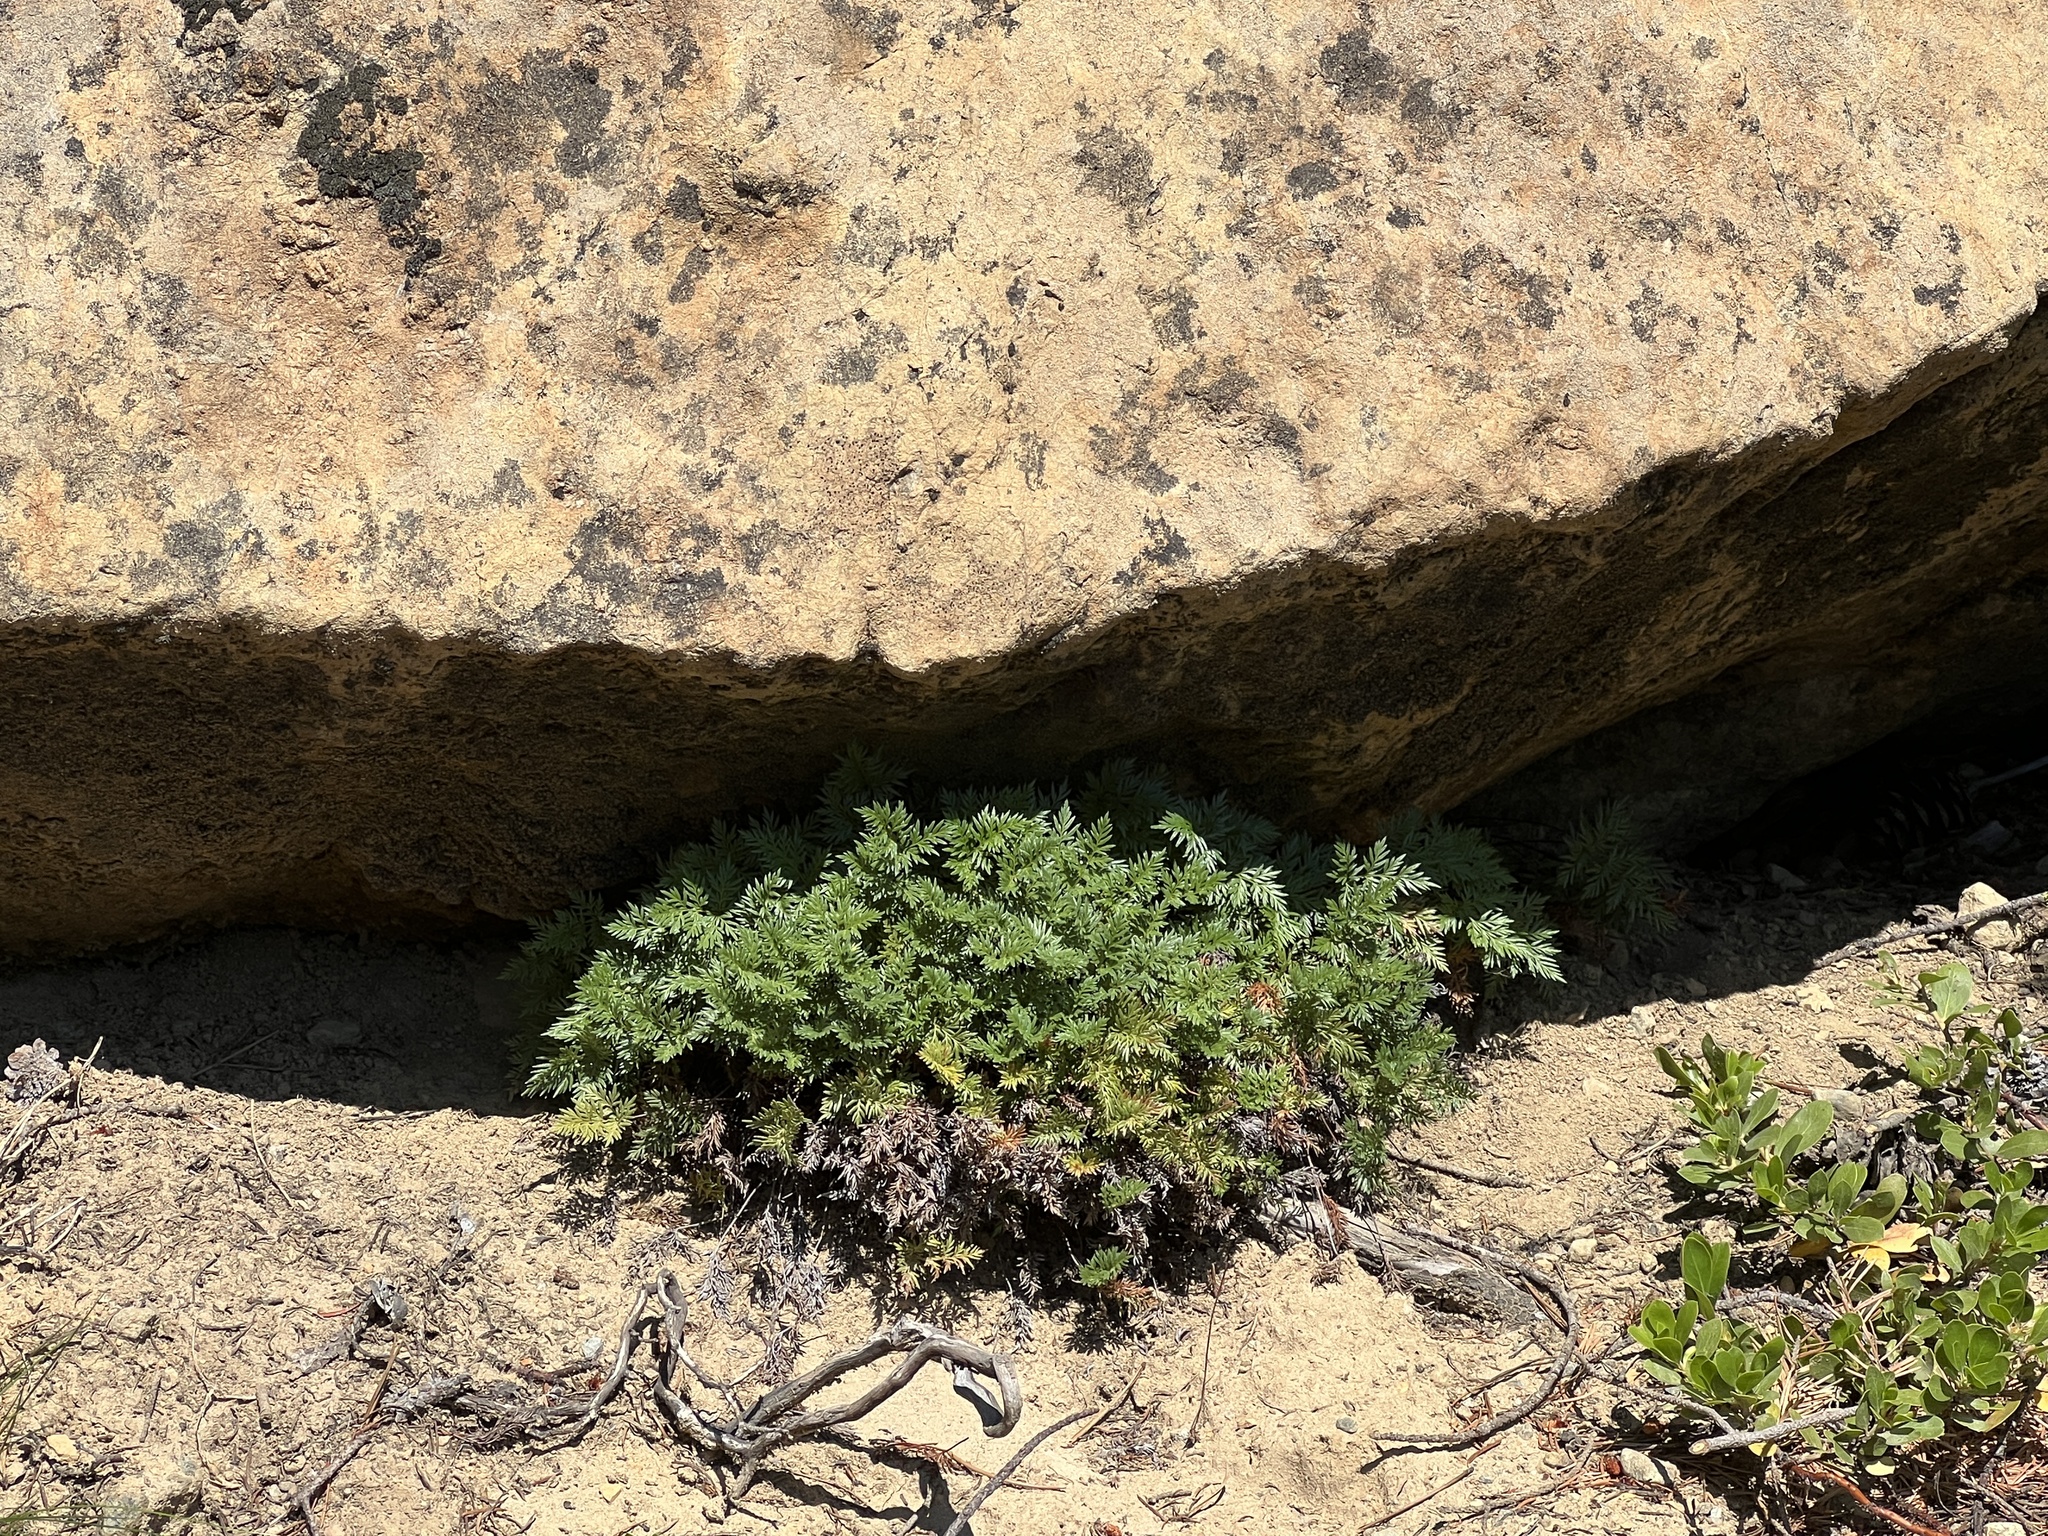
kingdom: Plantae
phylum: Tracheophyta
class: Polypodiopsida
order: Polypodiales
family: Pteridaceae
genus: Aspidotis
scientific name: Aspidotis densa
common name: Indian's dream
